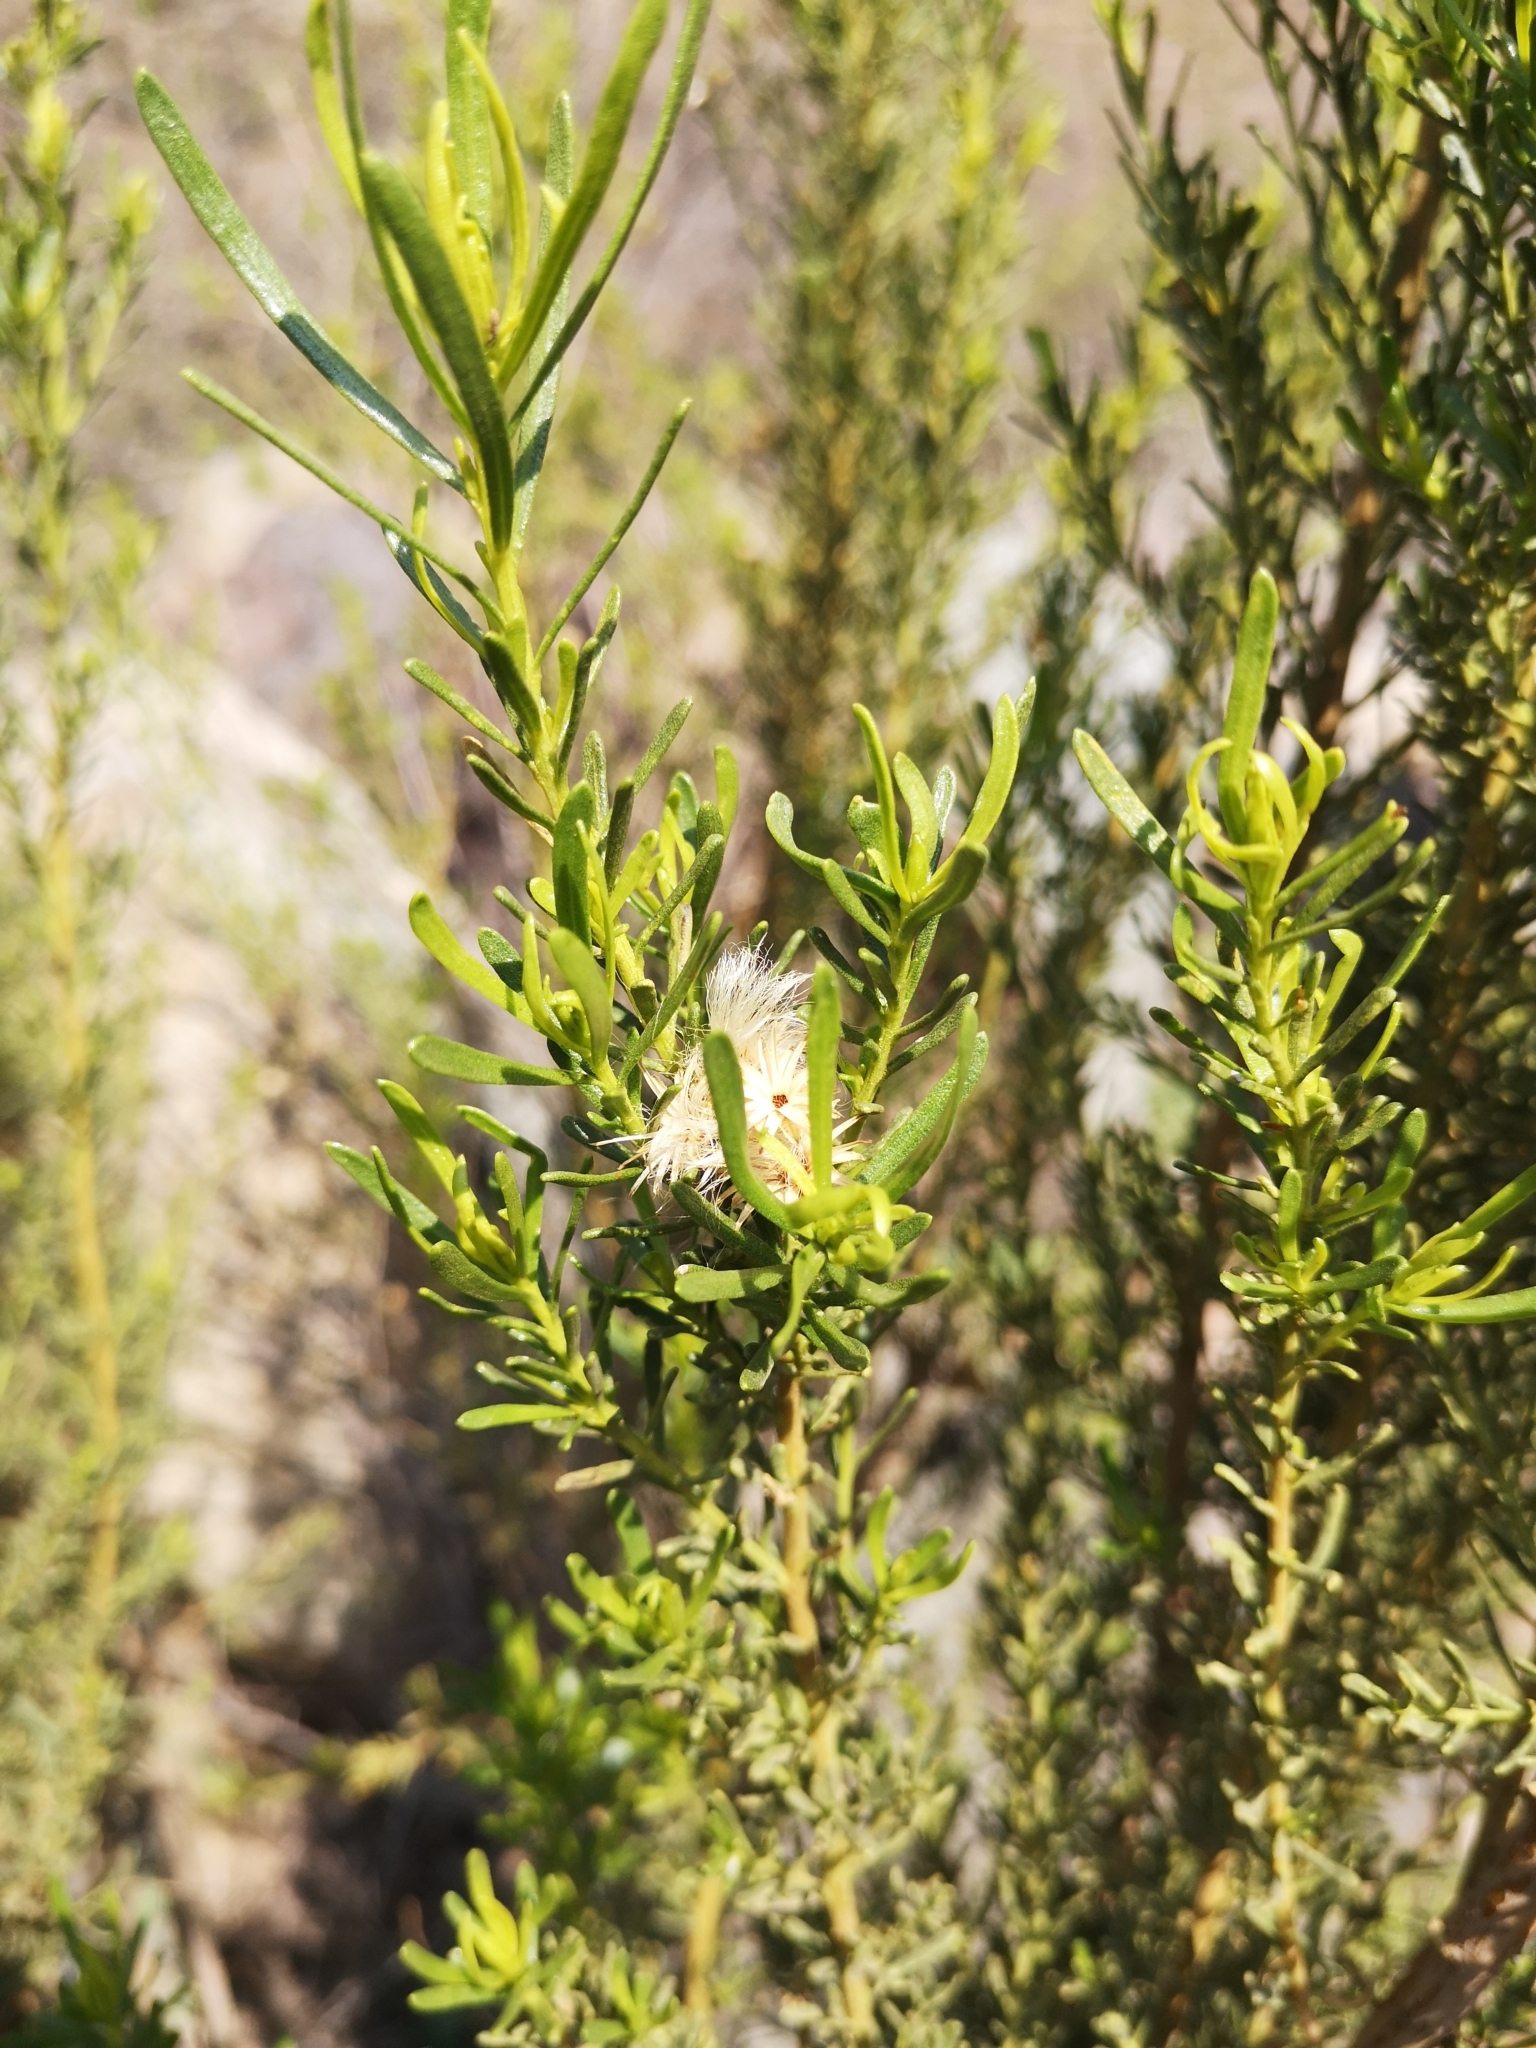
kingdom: Plantae
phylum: Tracheophyta
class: Magnoliopsida
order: Asterales
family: Asteraceae
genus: Baccharis
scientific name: Baccharis linearis
